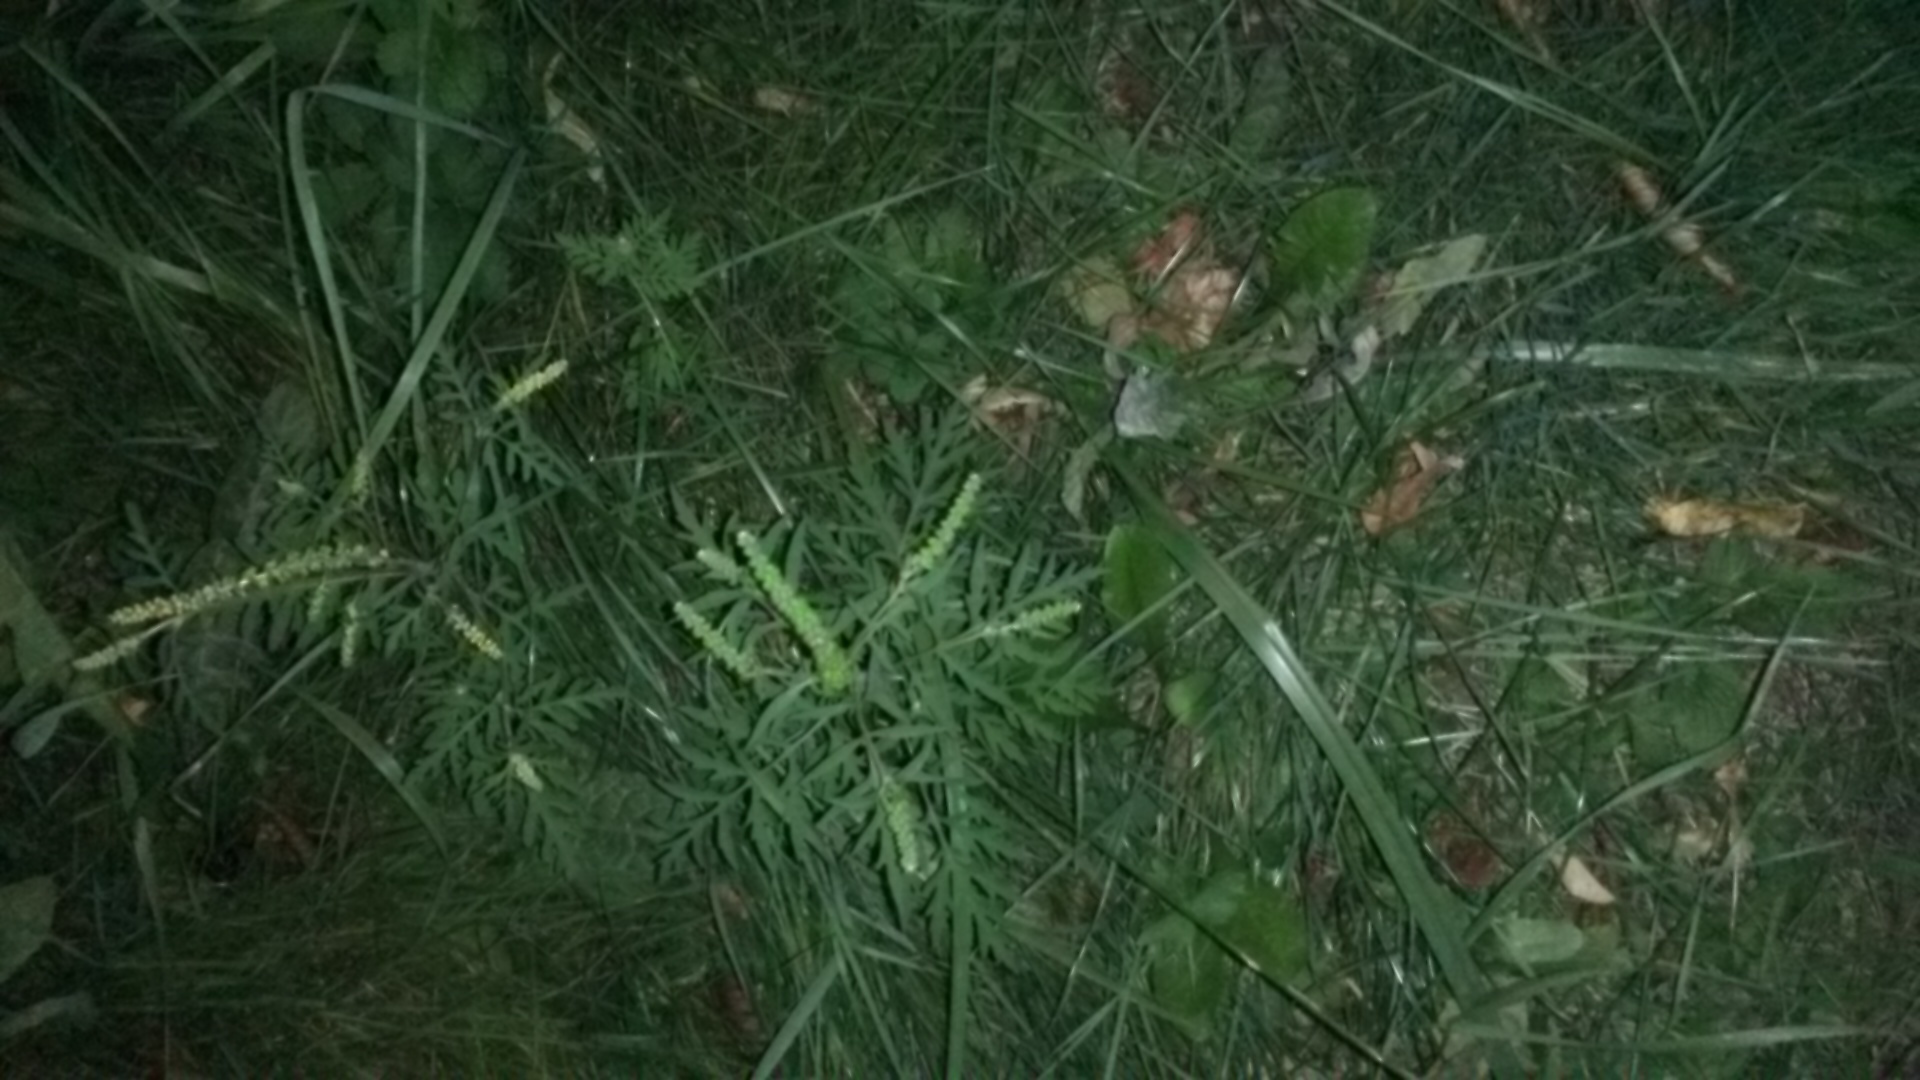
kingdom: Plantae
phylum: Tracheophyta
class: Magnoliopsida
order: Asterales
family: Asteraceae
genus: Ambrosia
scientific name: Ambrosia artemisiifolia
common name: Annual ragweed
